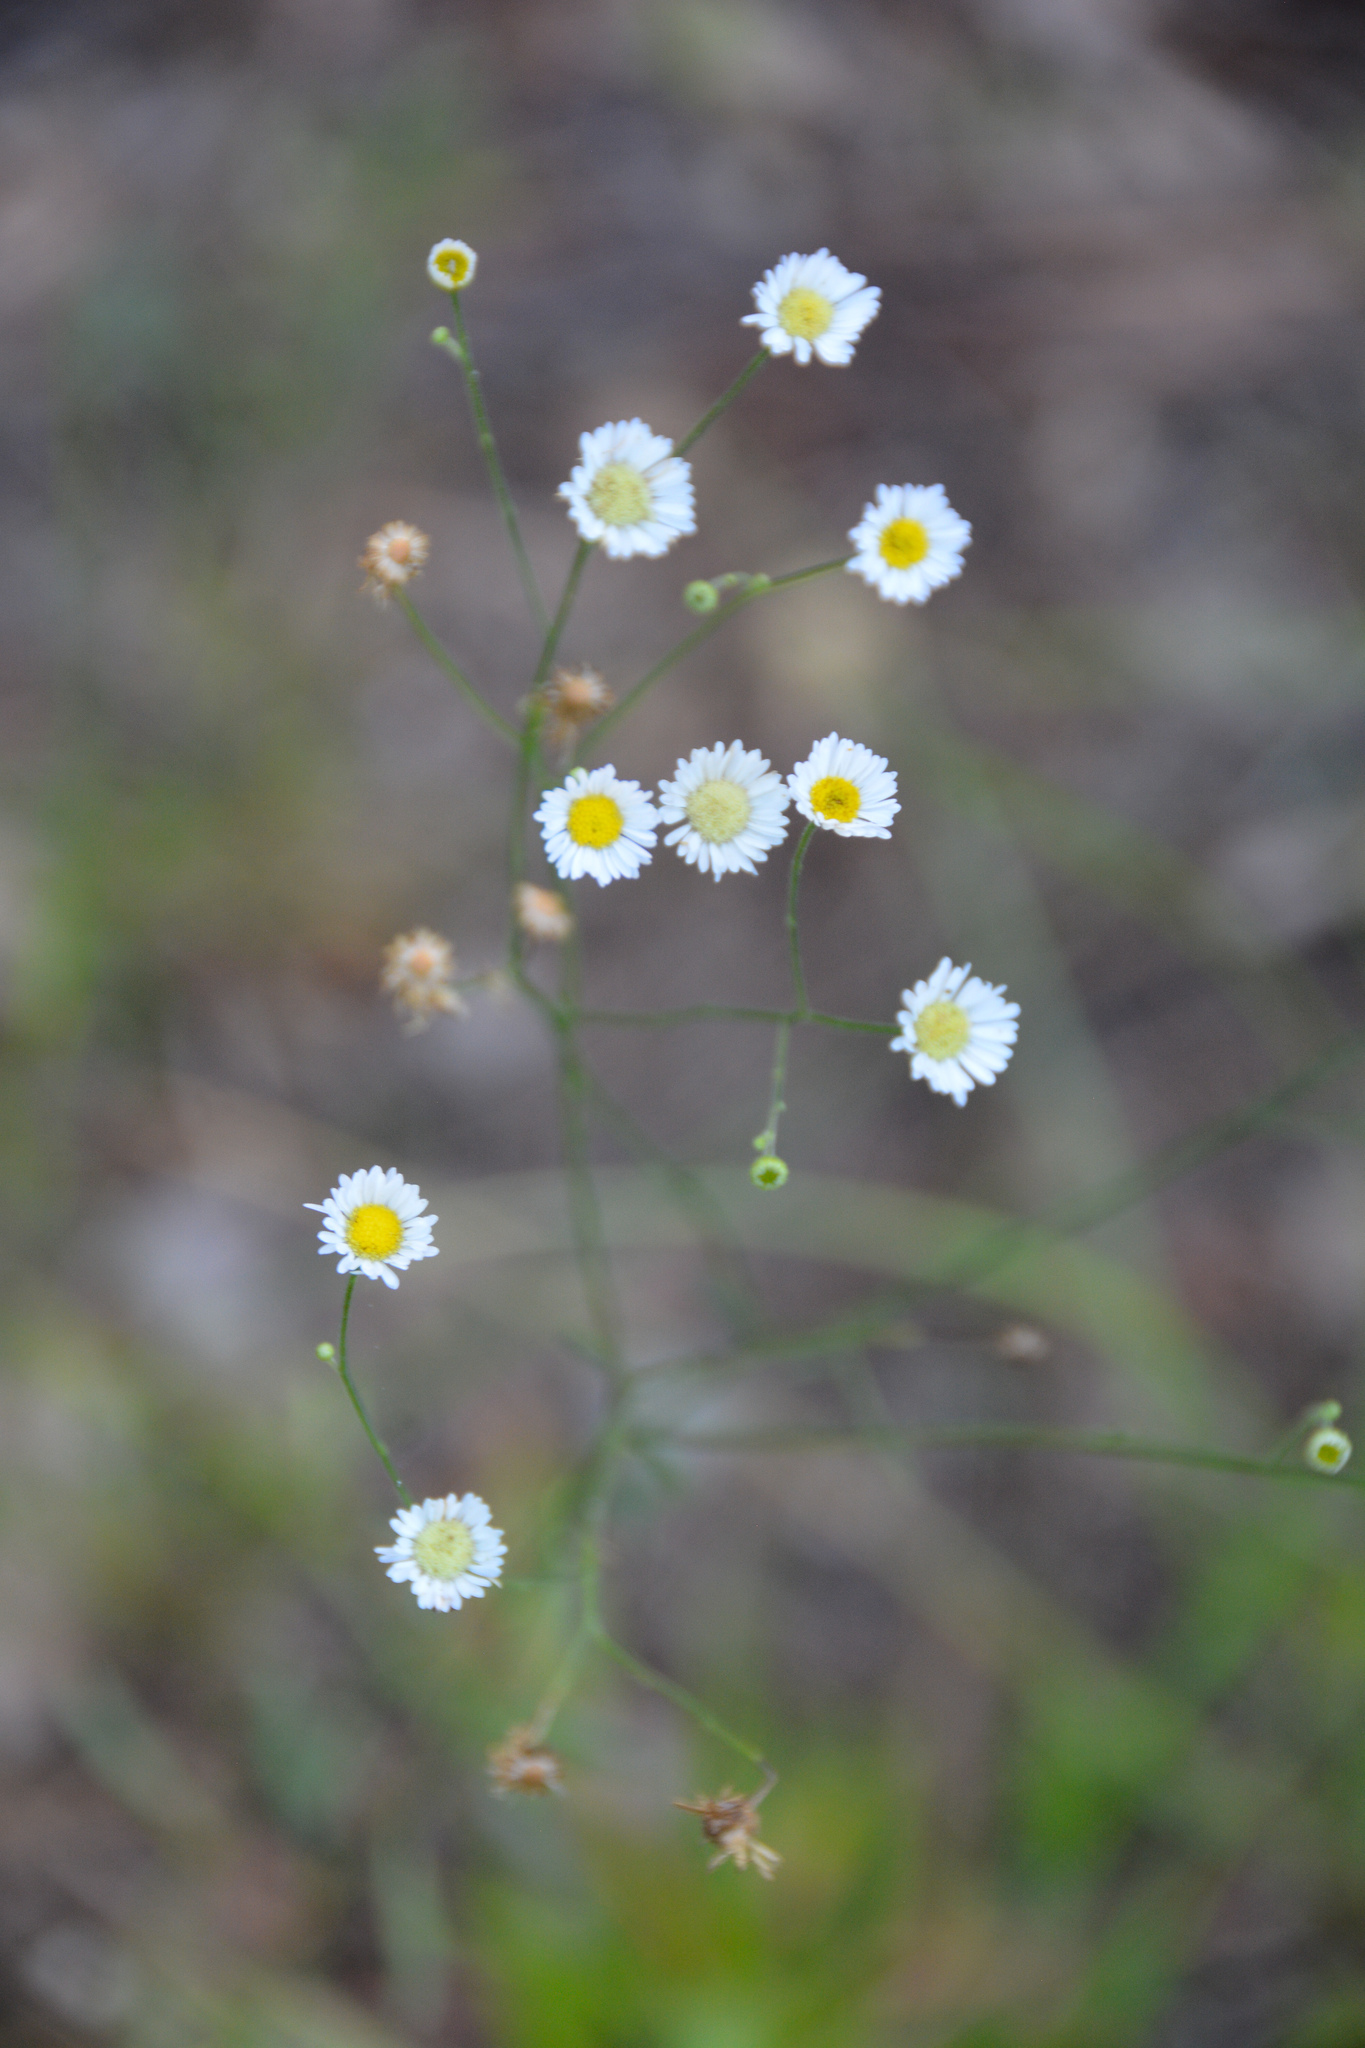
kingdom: Plantae
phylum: Tracheophyta
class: Magnoliopsida
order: Asterales
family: Asteraceae
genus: Erigeron
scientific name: Erigeron strigosus
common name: Common eastern fleabane
